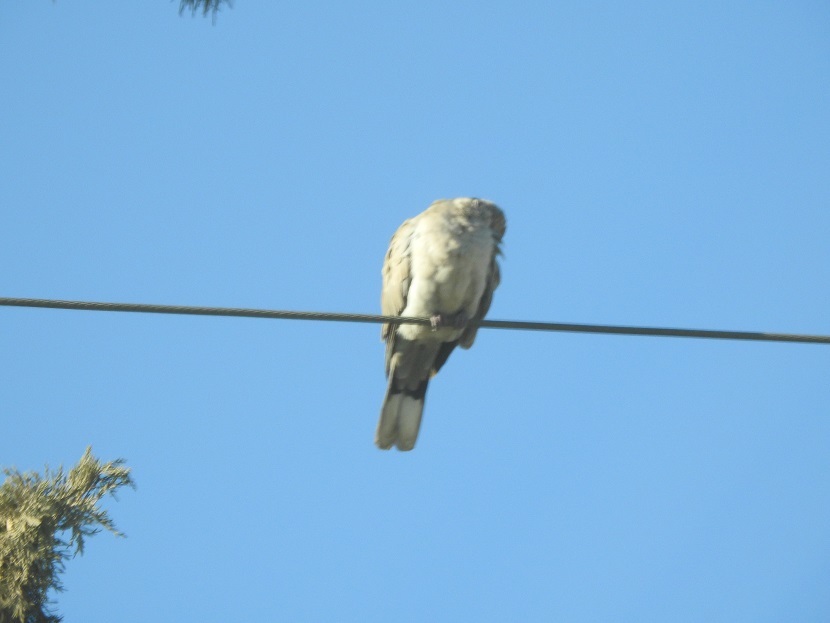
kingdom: Animalia
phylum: Chordata
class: Aves
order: Columbiformes
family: Columbidae
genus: Streptopelia
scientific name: Streptopelia decaocto
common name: Eurasian collared dove
